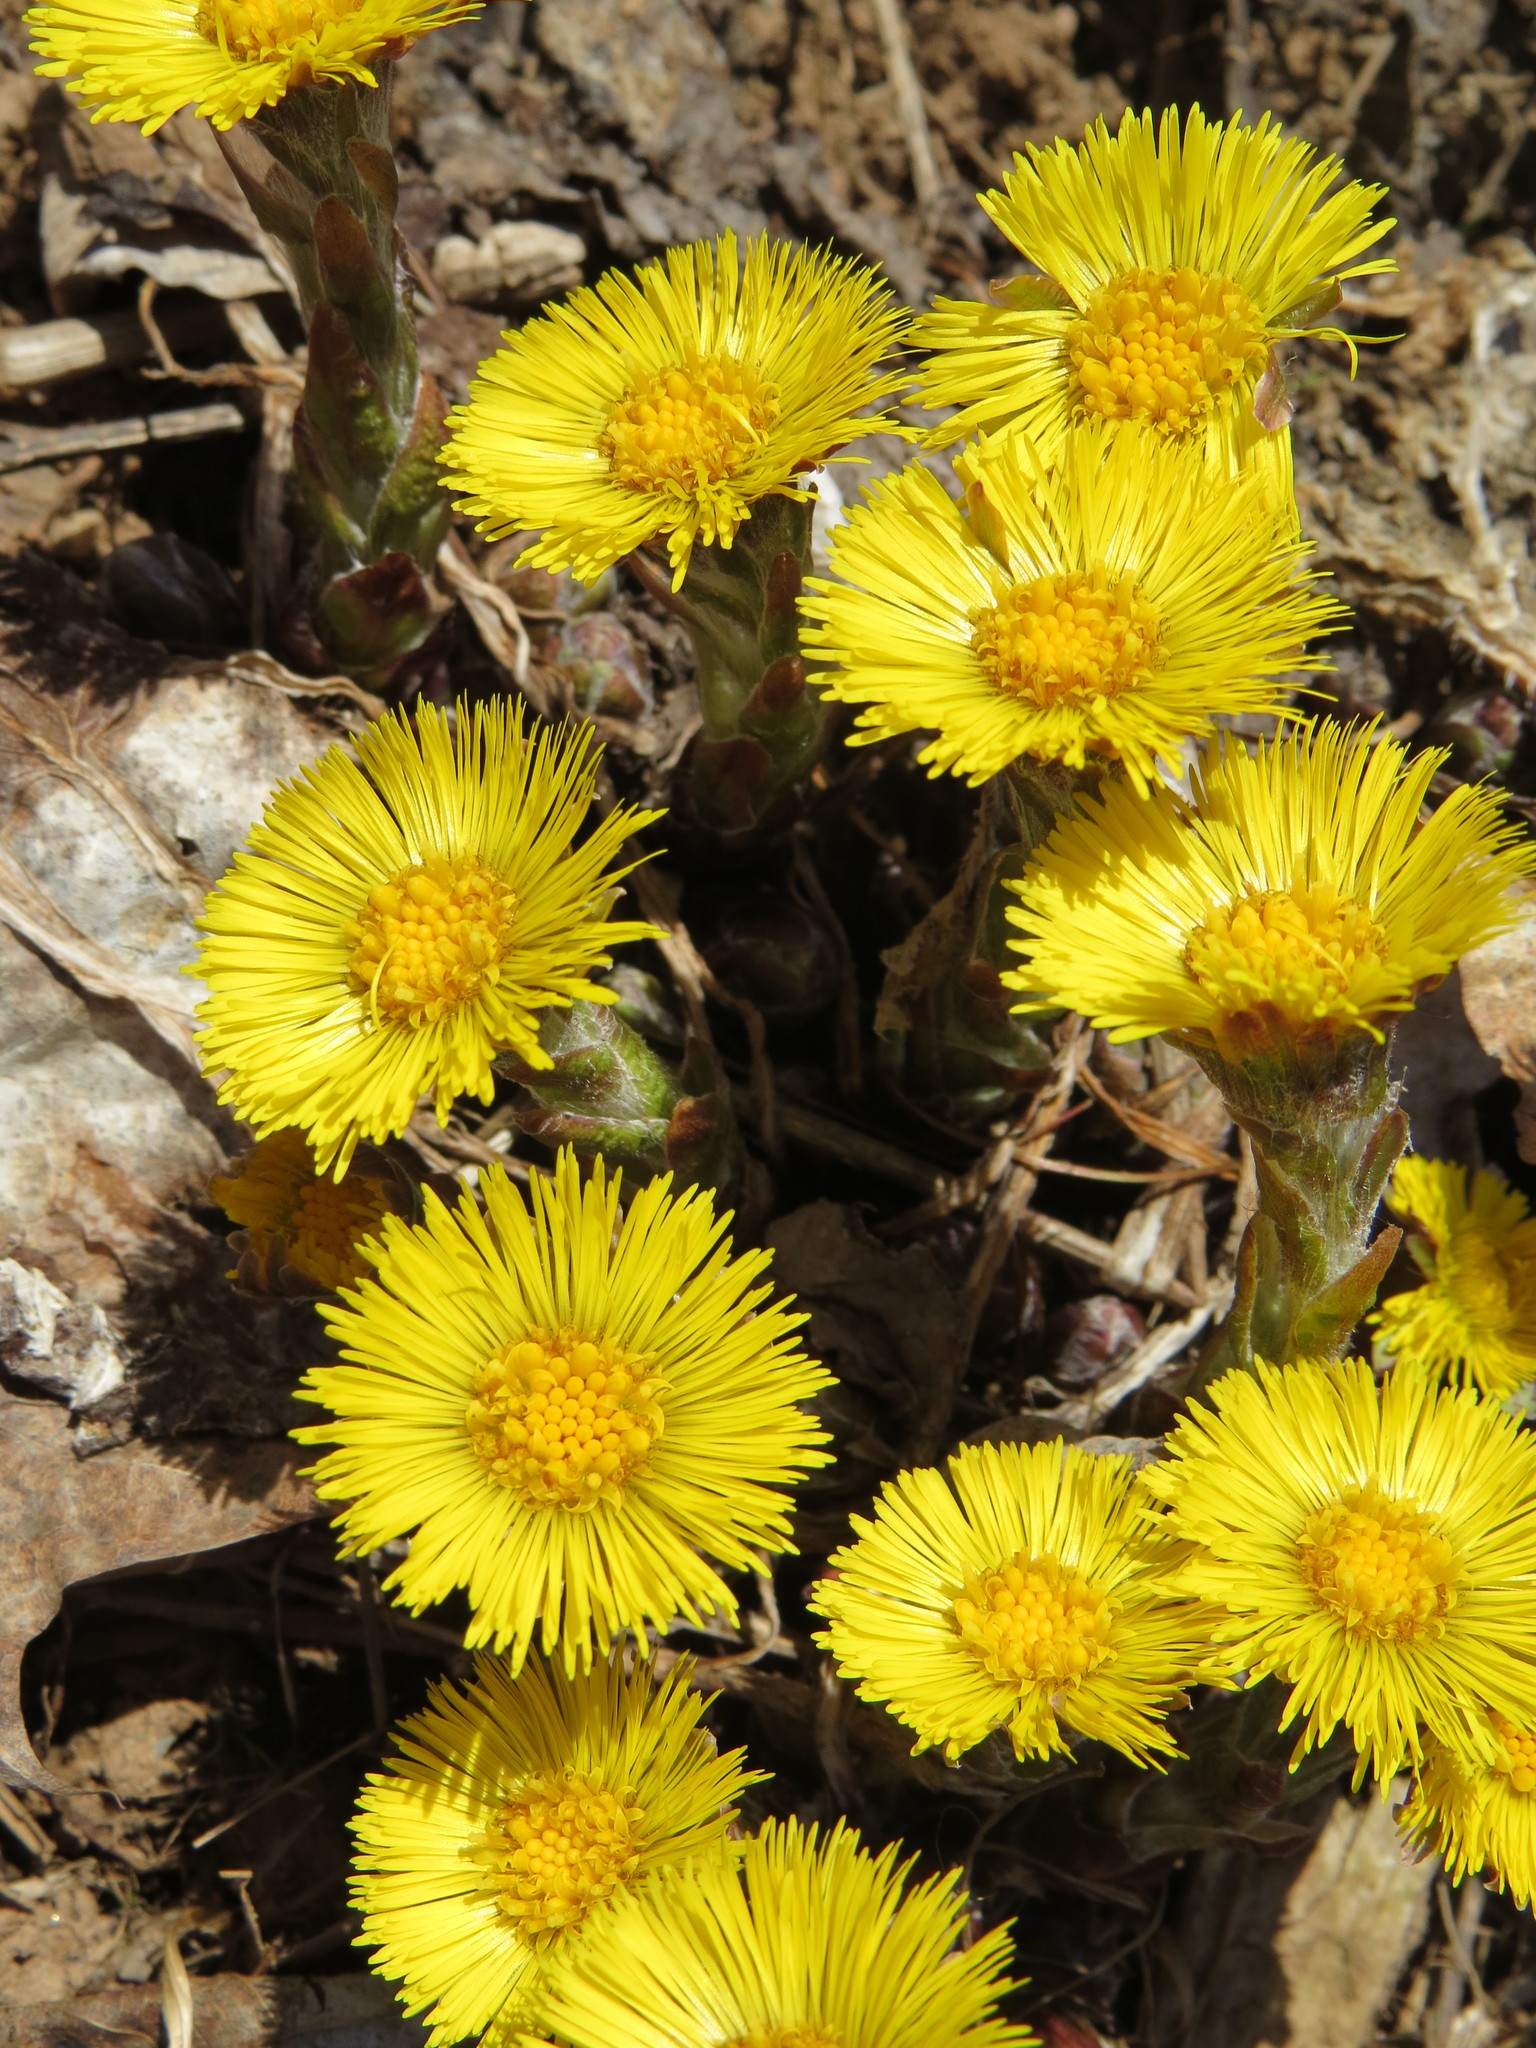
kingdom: Plantae
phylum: Tracheophyta
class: Magnoliopsida
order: Asterales
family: Asteraceae
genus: Tussilago
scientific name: Tussilago farfara
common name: Coltsfoot
